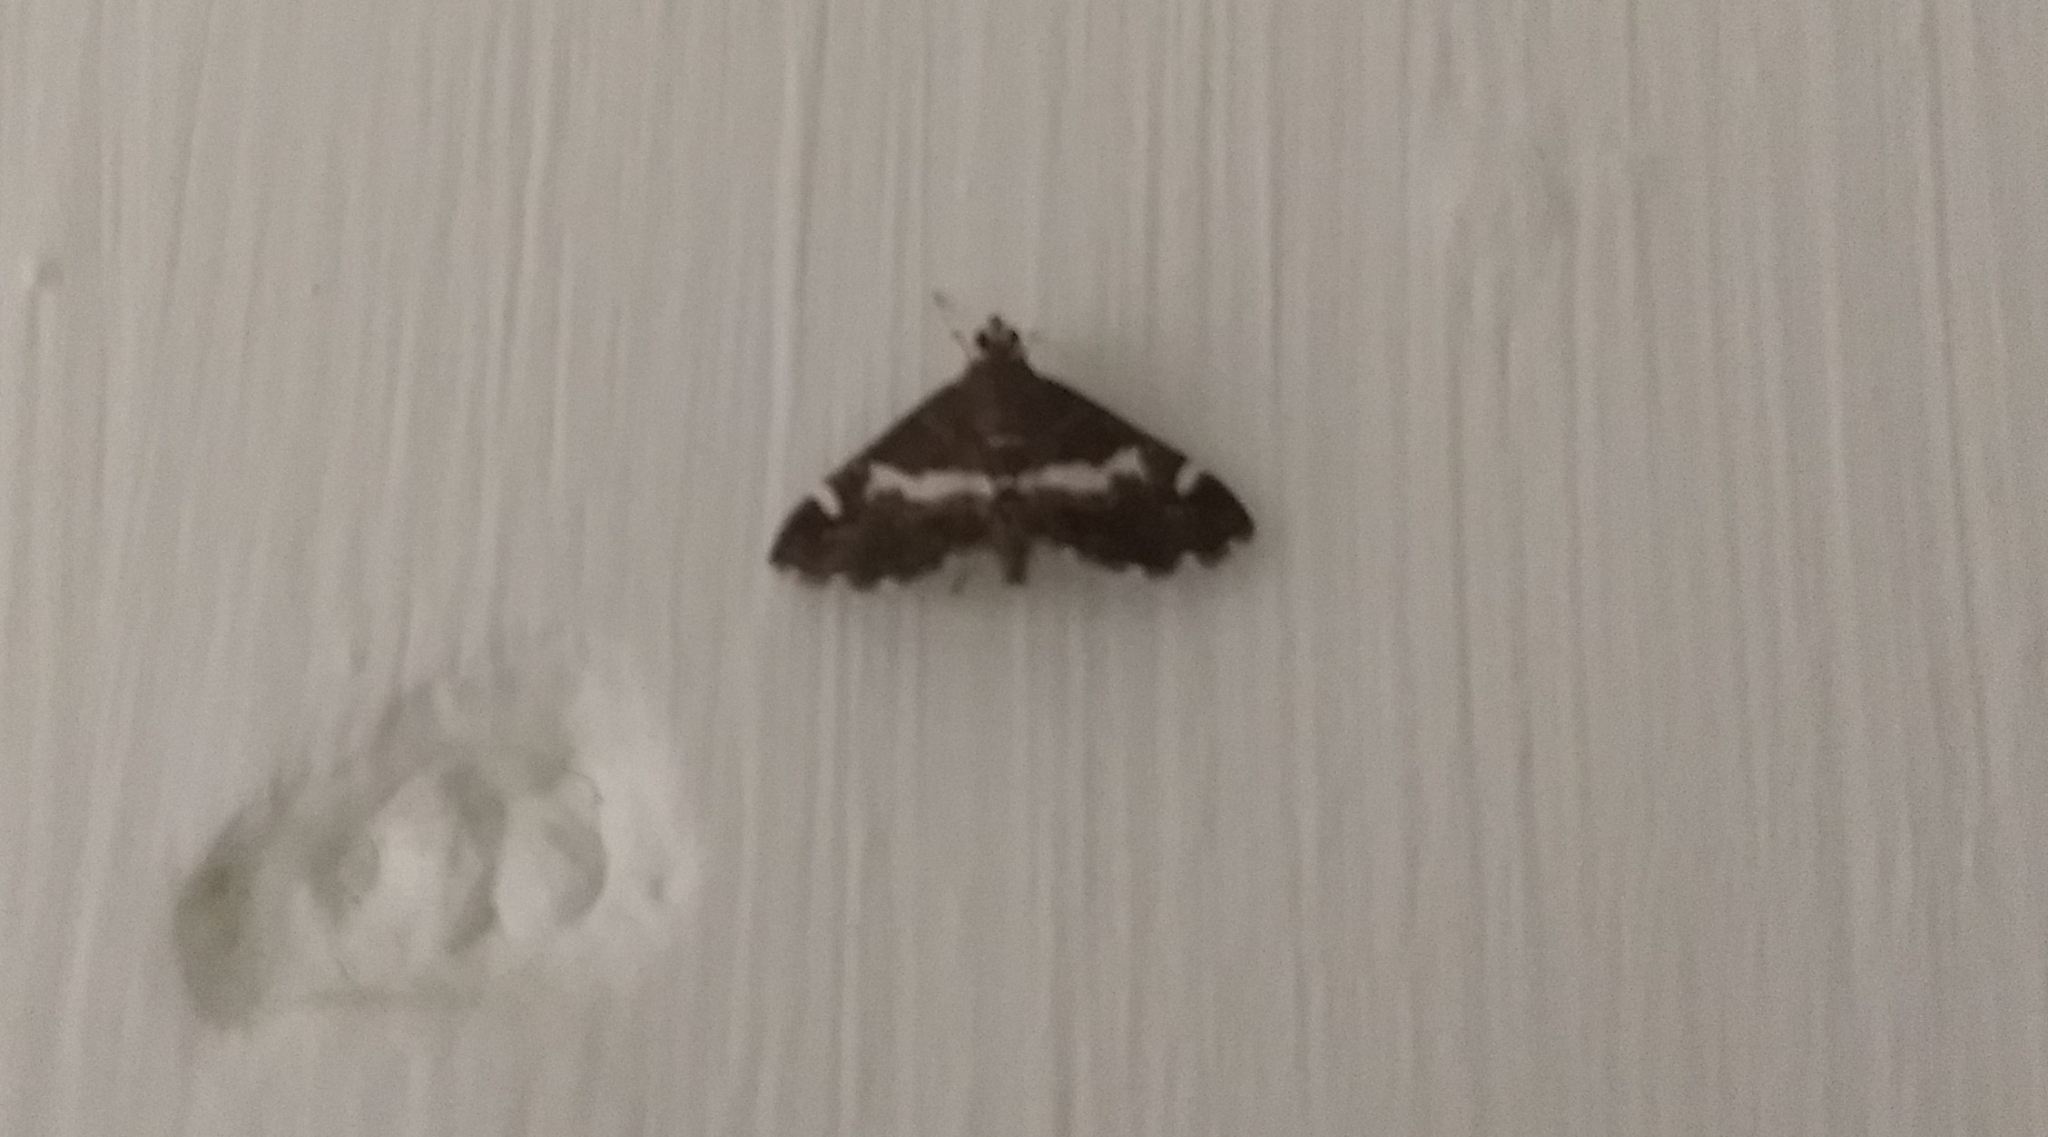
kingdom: Animalia
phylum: Arthropoda
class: Insecta
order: Lepidoptera
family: Crambidae
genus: Spoladea
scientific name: Spoladea recurvalis
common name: Beet webworm moth
